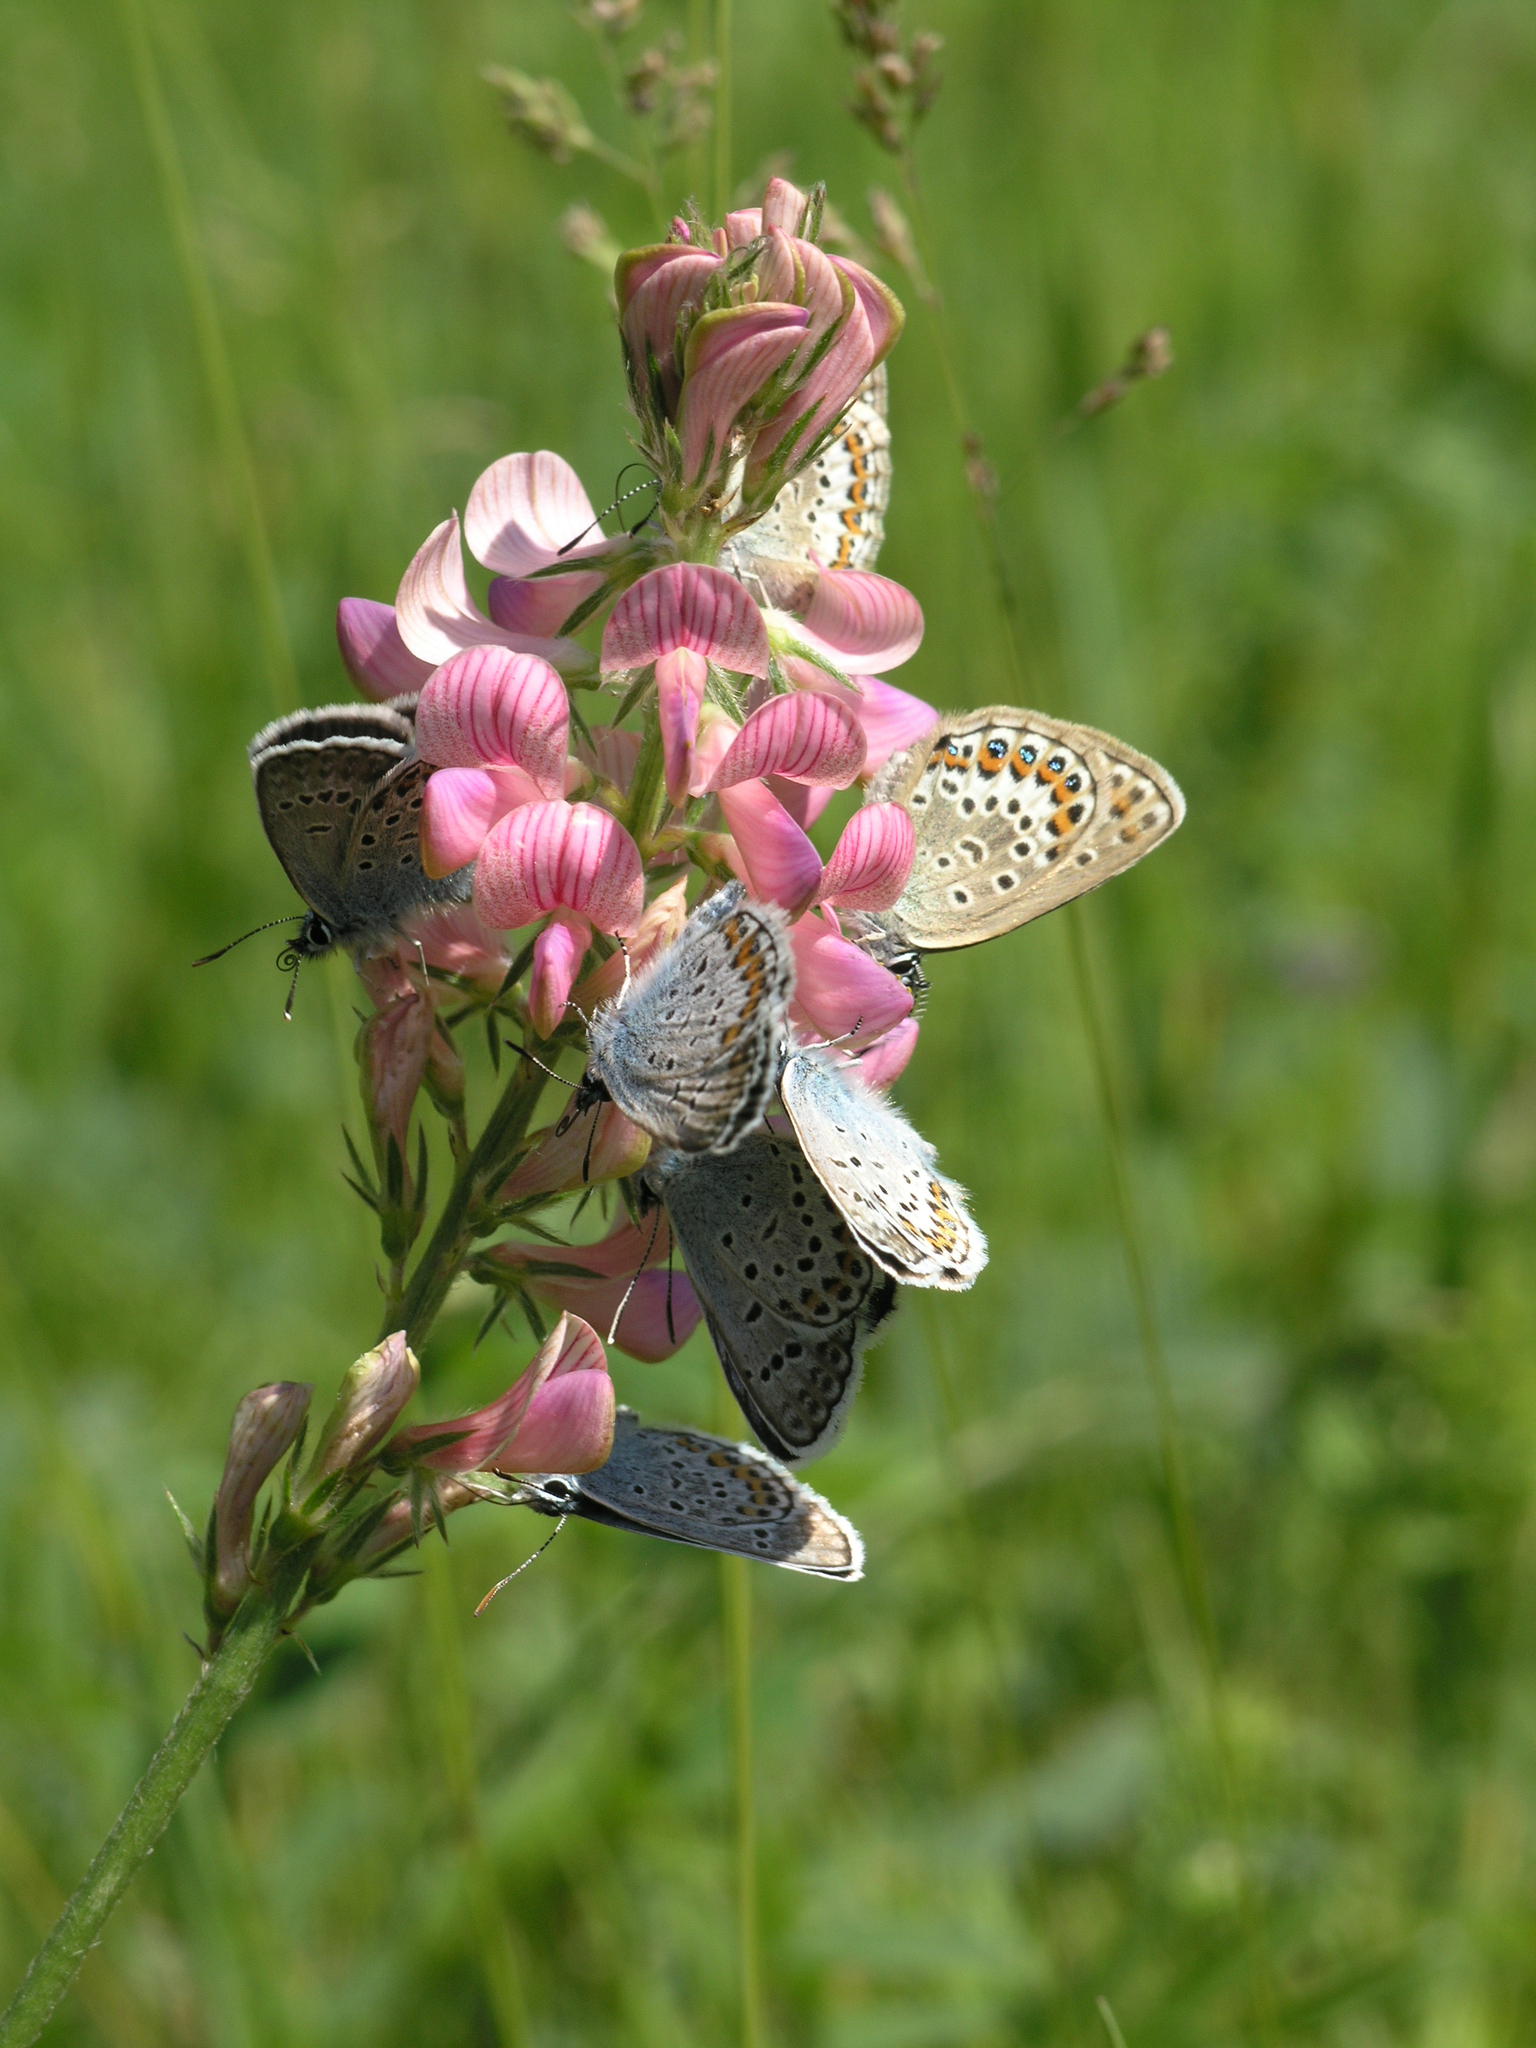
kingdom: Plantae
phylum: Tracheophyta
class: Magnoliopsida
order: Fabales
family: Fabaceae
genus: Onobrychis
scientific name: Onobrychis arenaria
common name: Sand esparcet
